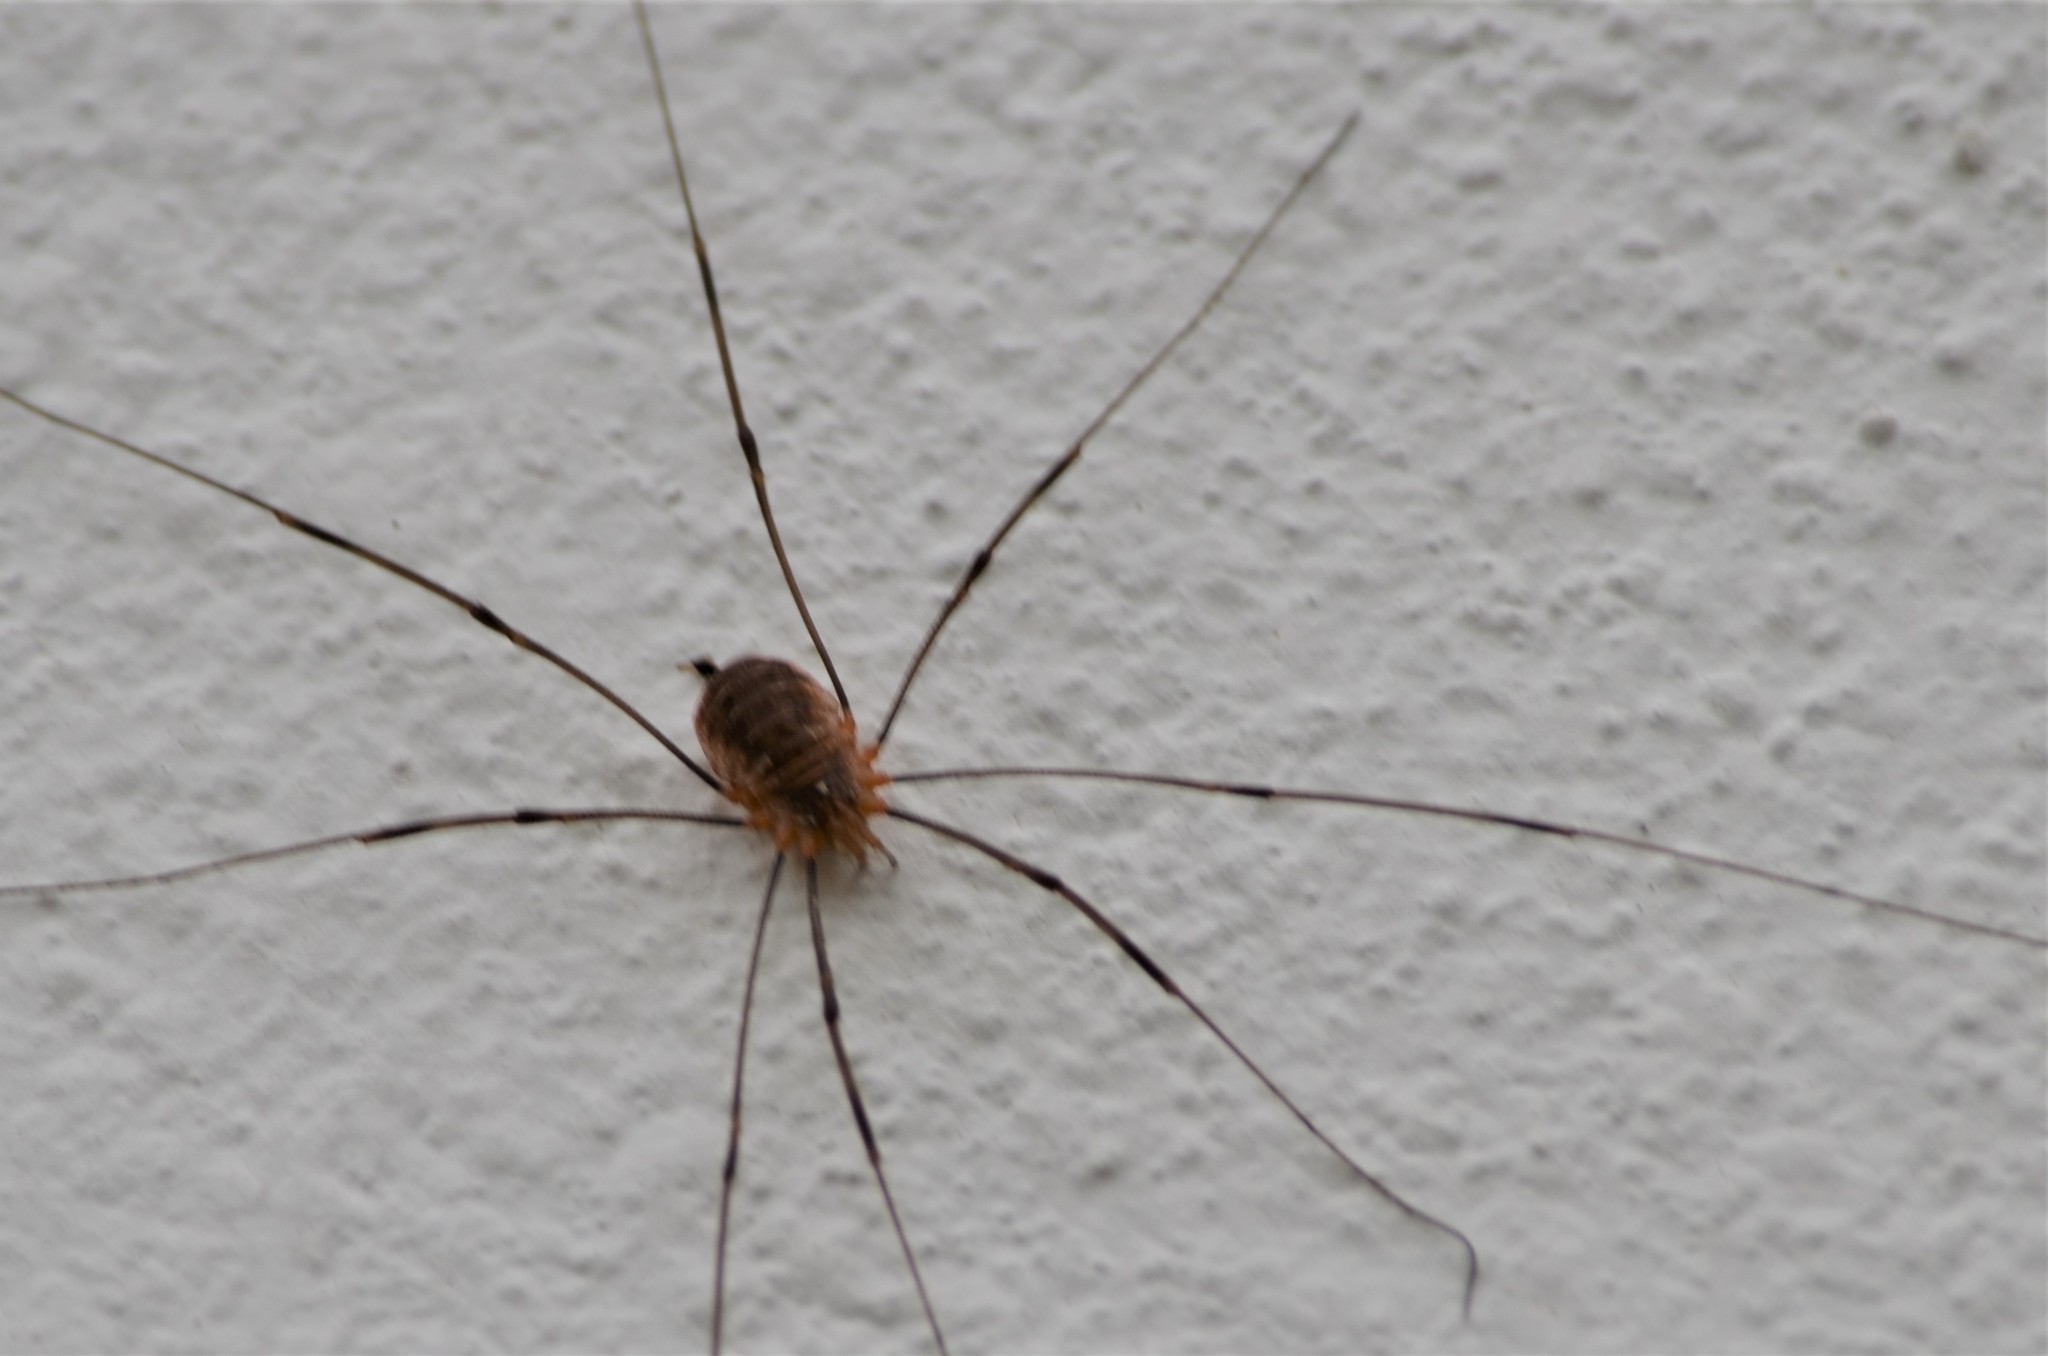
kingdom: Animalia
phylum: Arthropoda
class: Arachnida
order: Opiliones
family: Phalangiidae
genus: Opilio
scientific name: Opilio canestrinii
